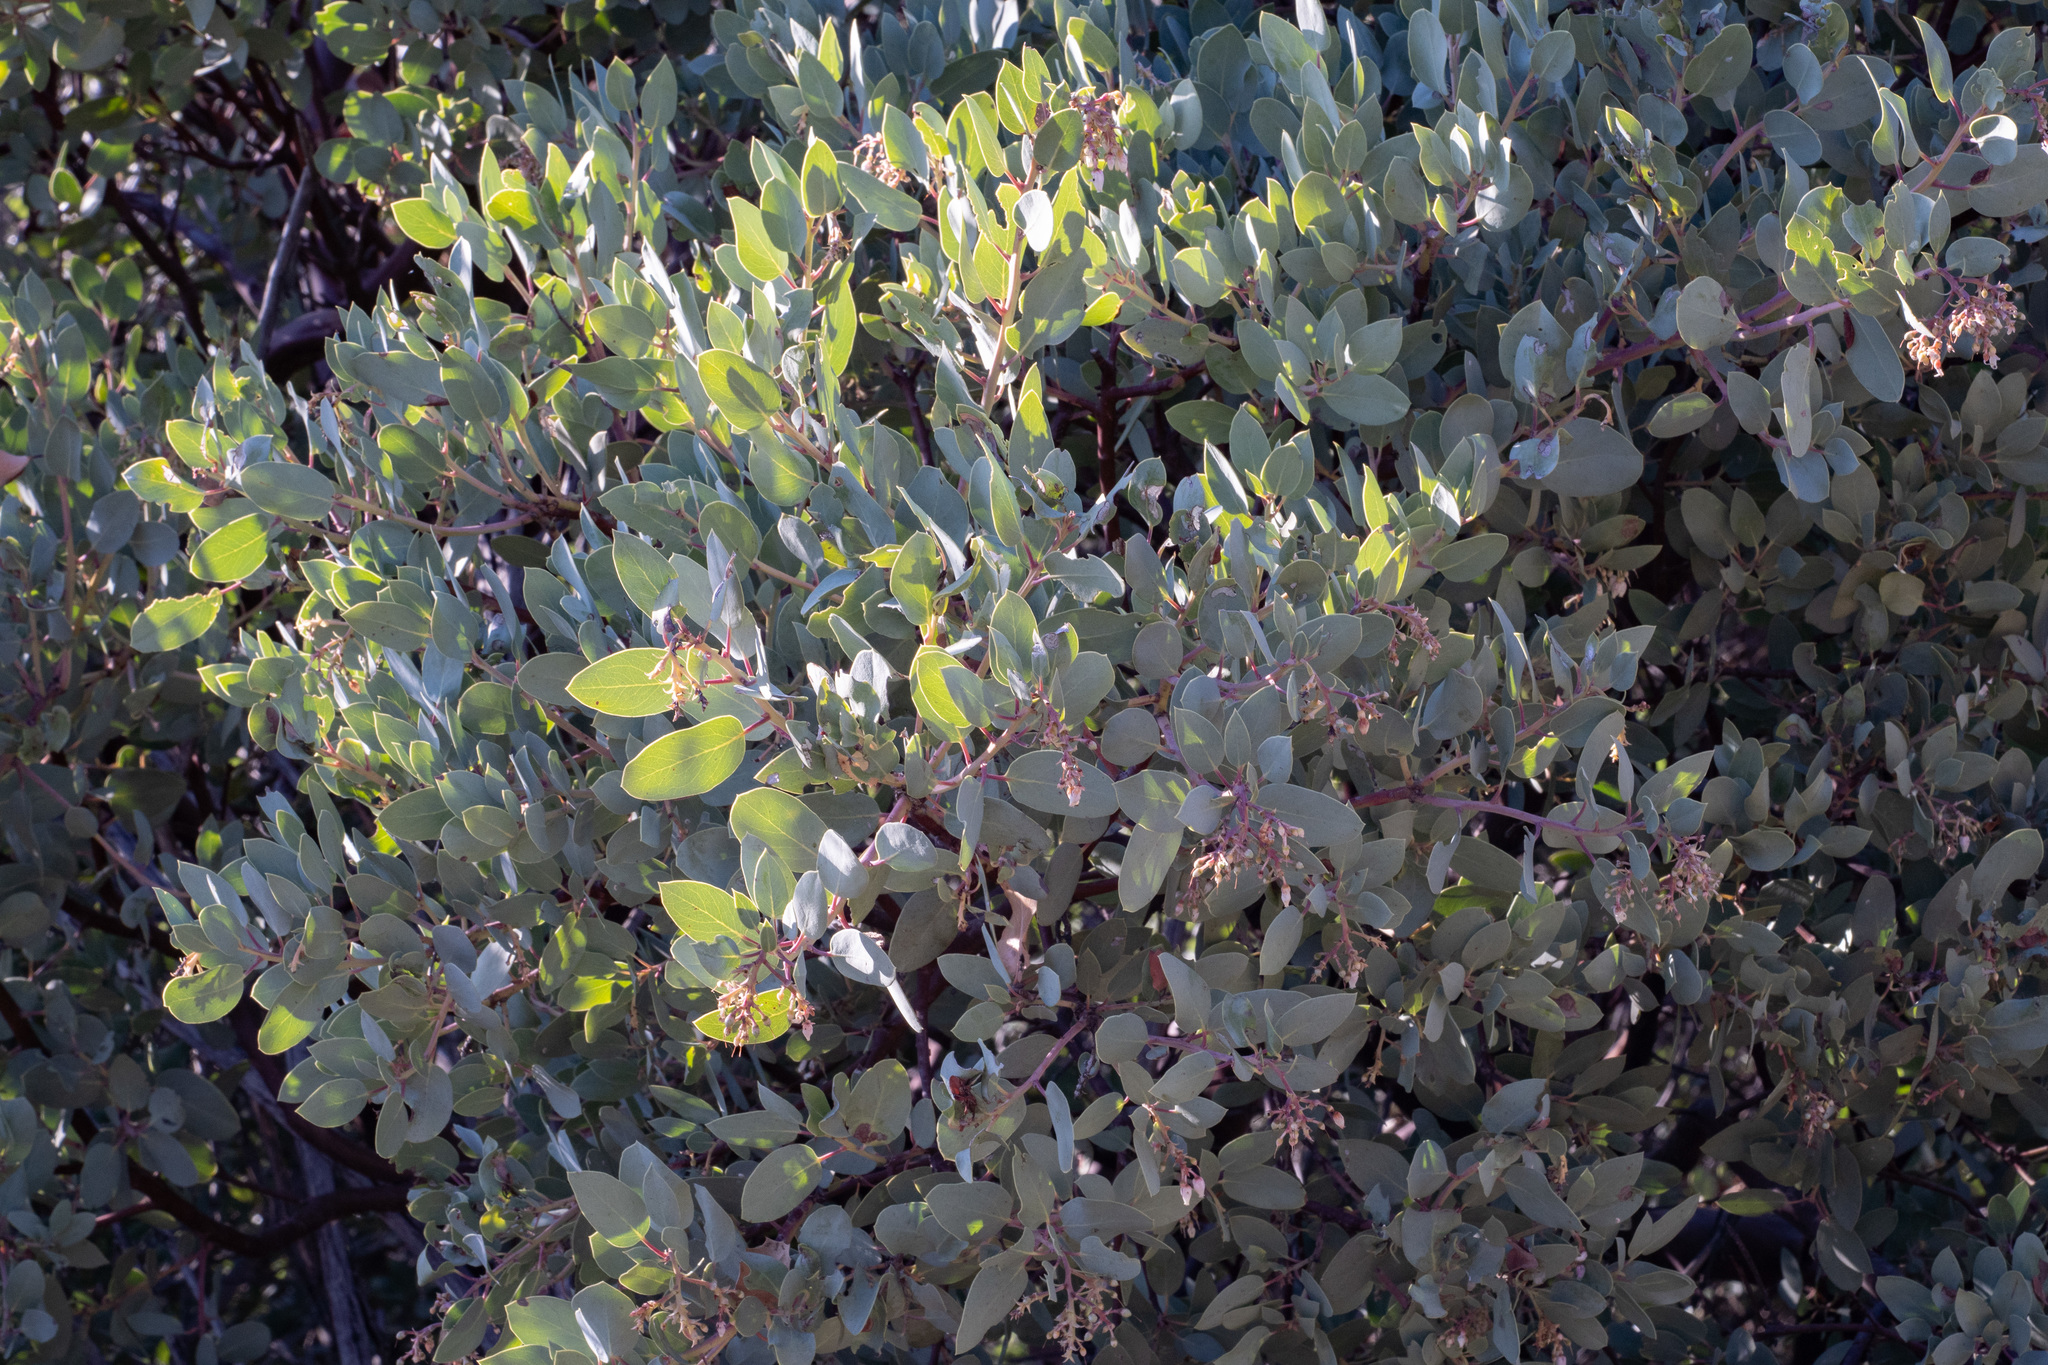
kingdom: Plantae
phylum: Tracheophyta
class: Magnoliopsida
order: Ericales
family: Ericaceae
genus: Arctostaphylos
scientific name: Arctostaphylos glauca
